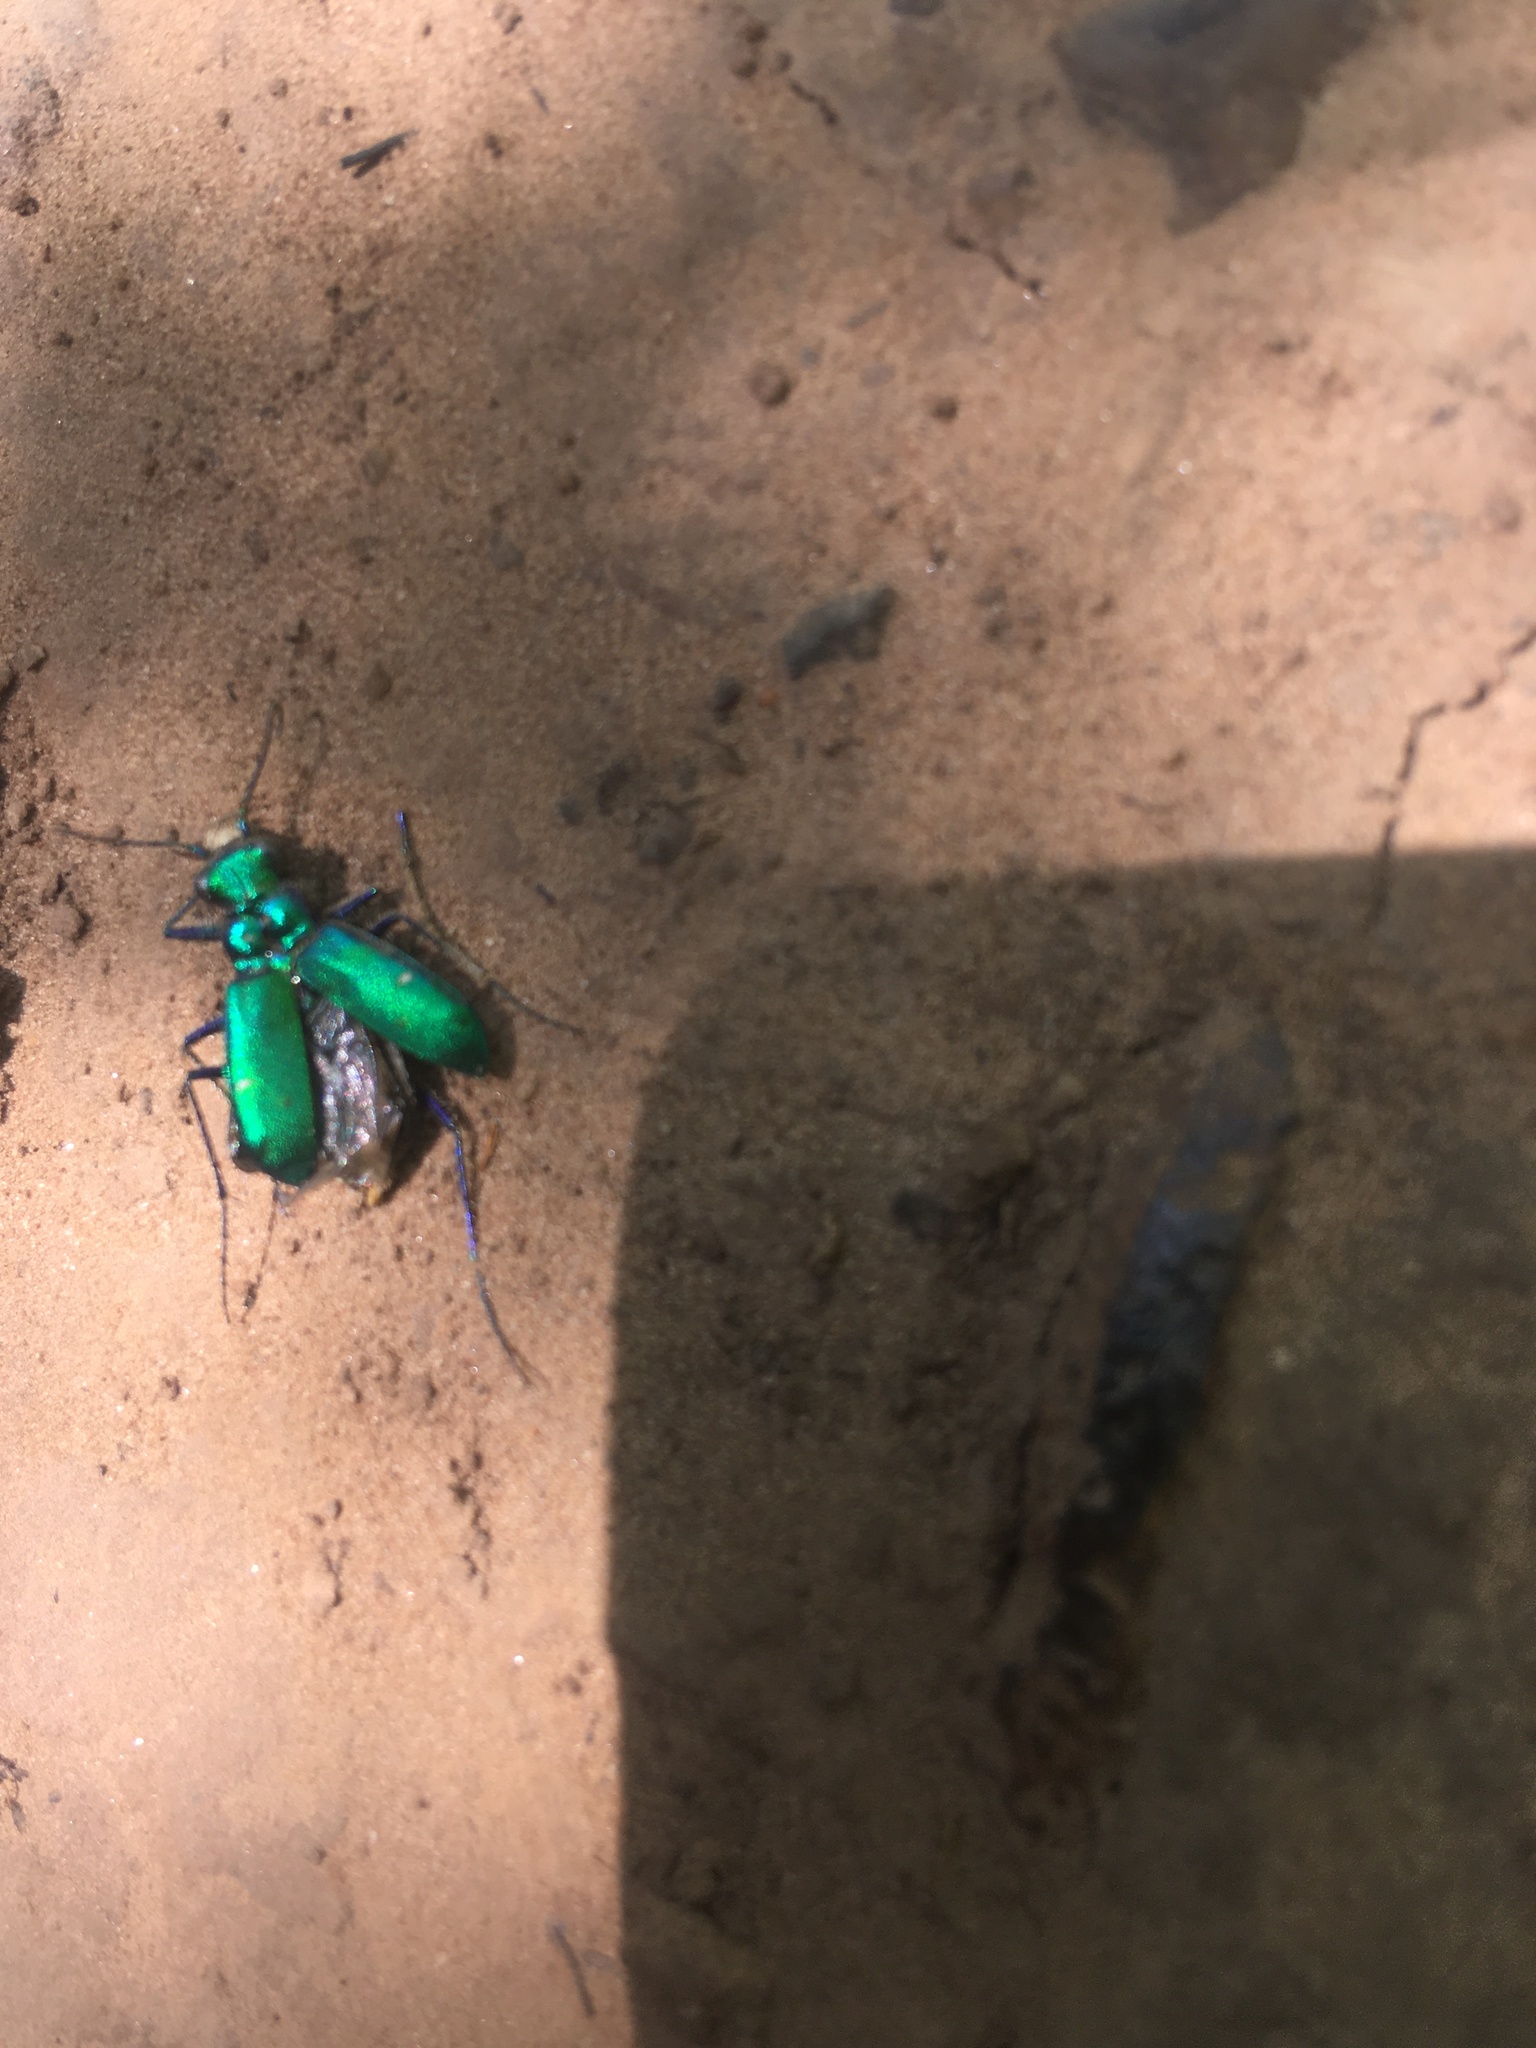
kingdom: Animalia
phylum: Arthropoda
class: Insecta
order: Coleoptera
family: Carabidae
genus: Cicindela
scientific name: Cicindela sexguttata
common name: Six-spotted tiger beetle
